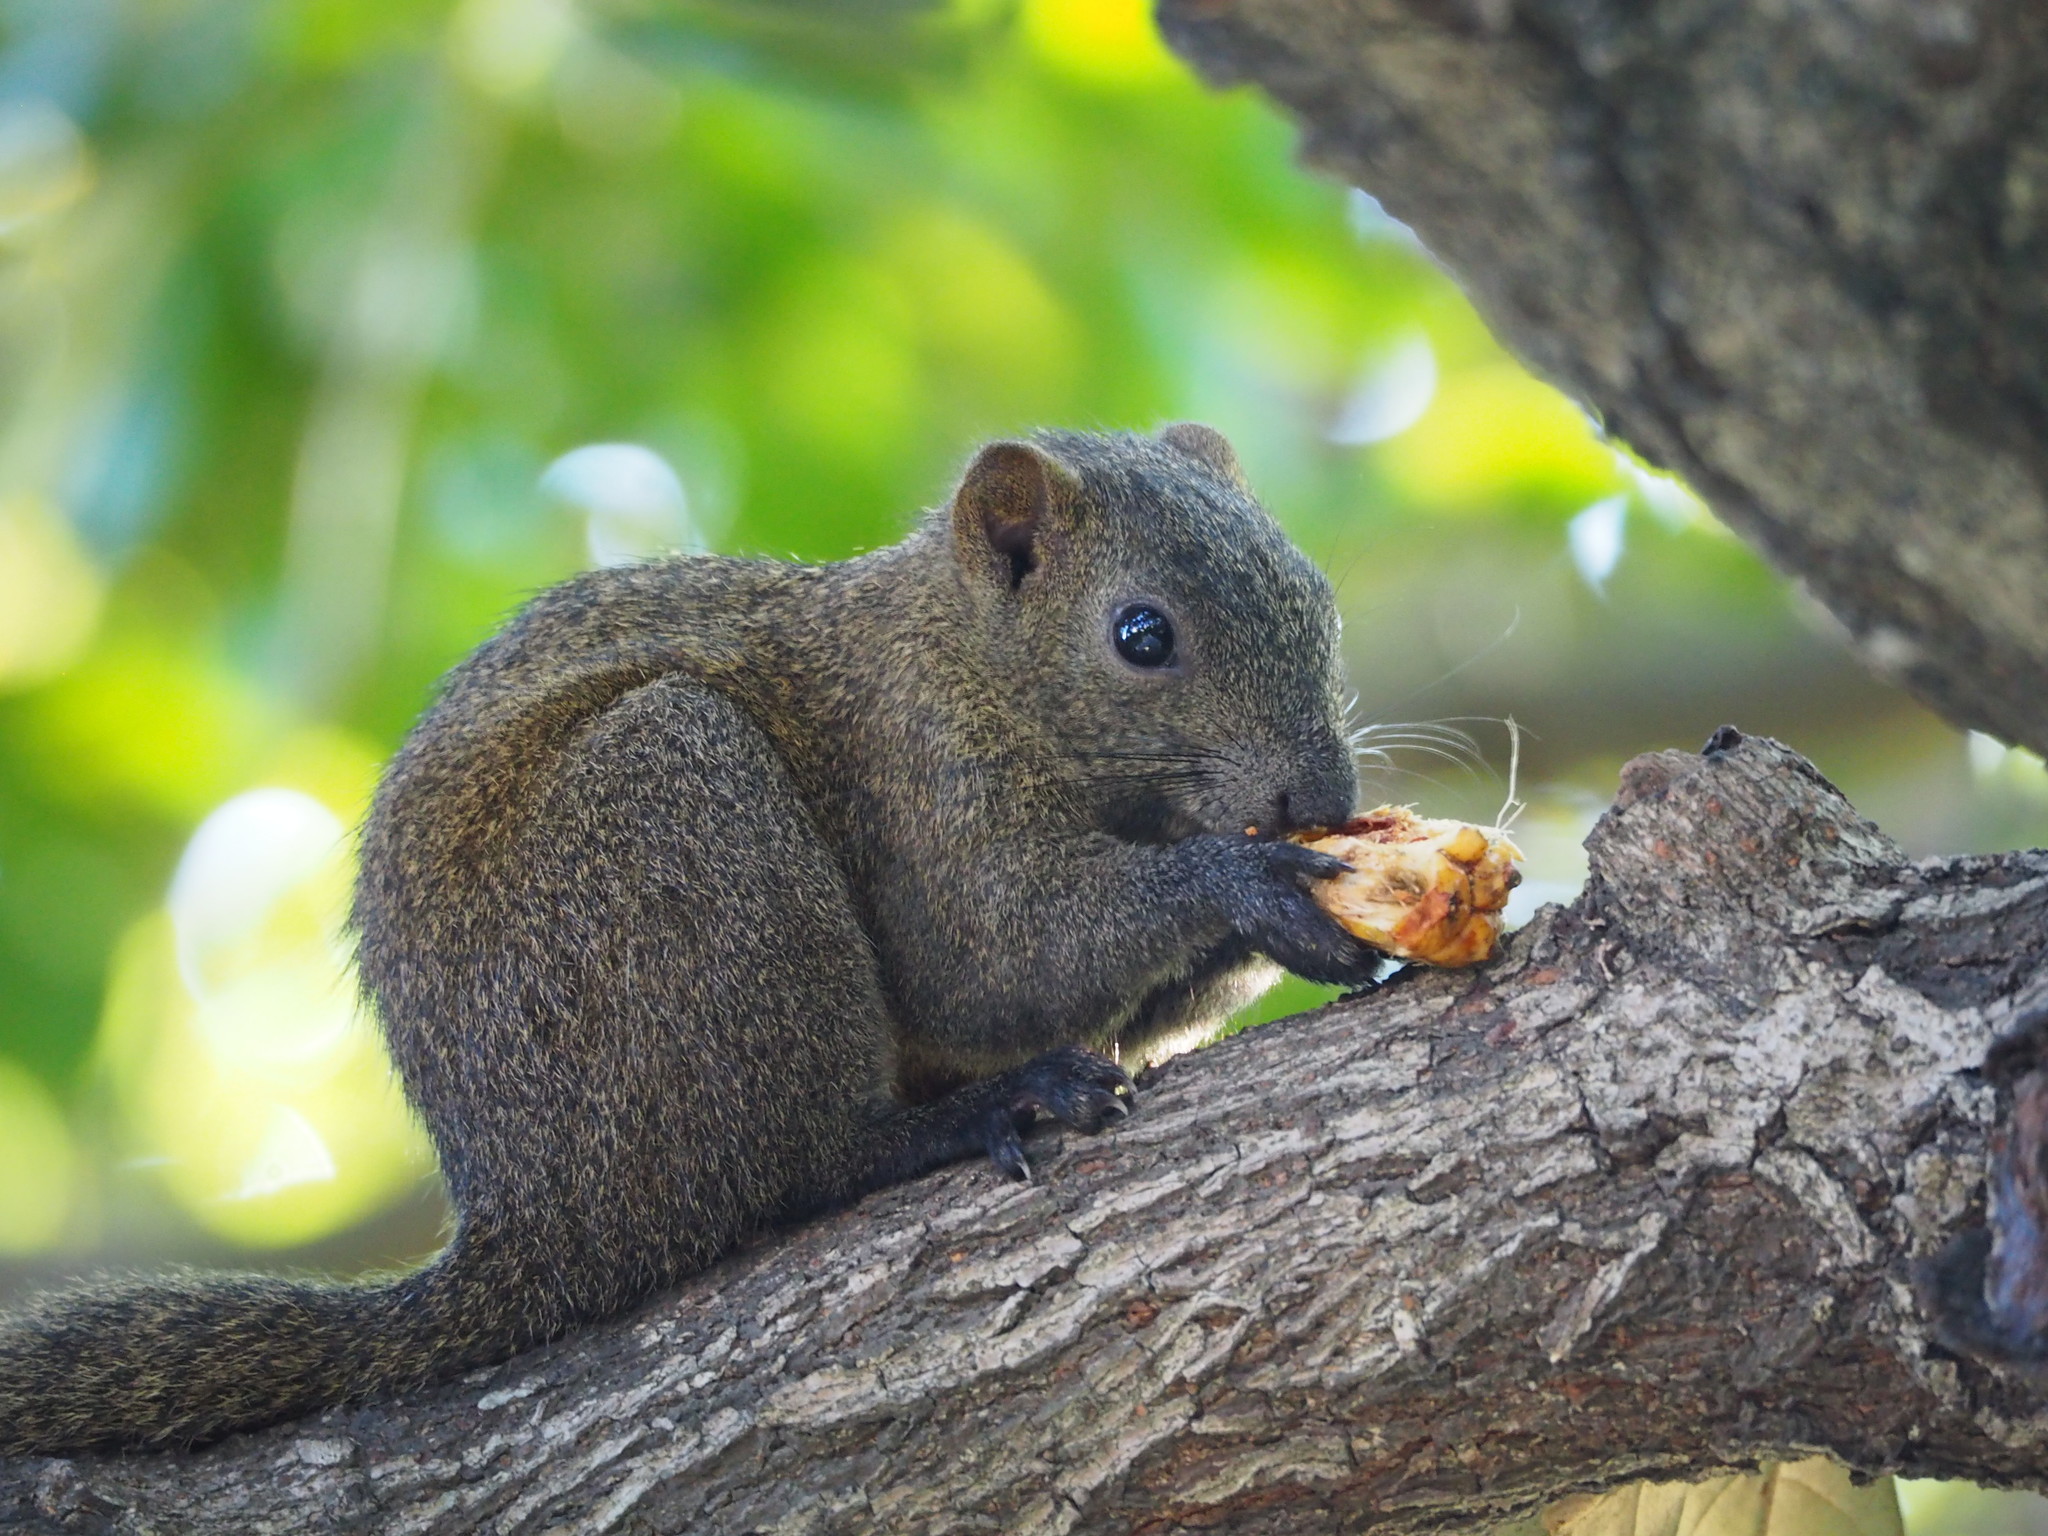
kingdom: Animalia
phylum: Chordata
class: Mammalia
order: Rodentia
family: Sciuridae
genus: Callosciurus
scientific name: Callosciurus erythraeus
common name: Pallas's squirrel
